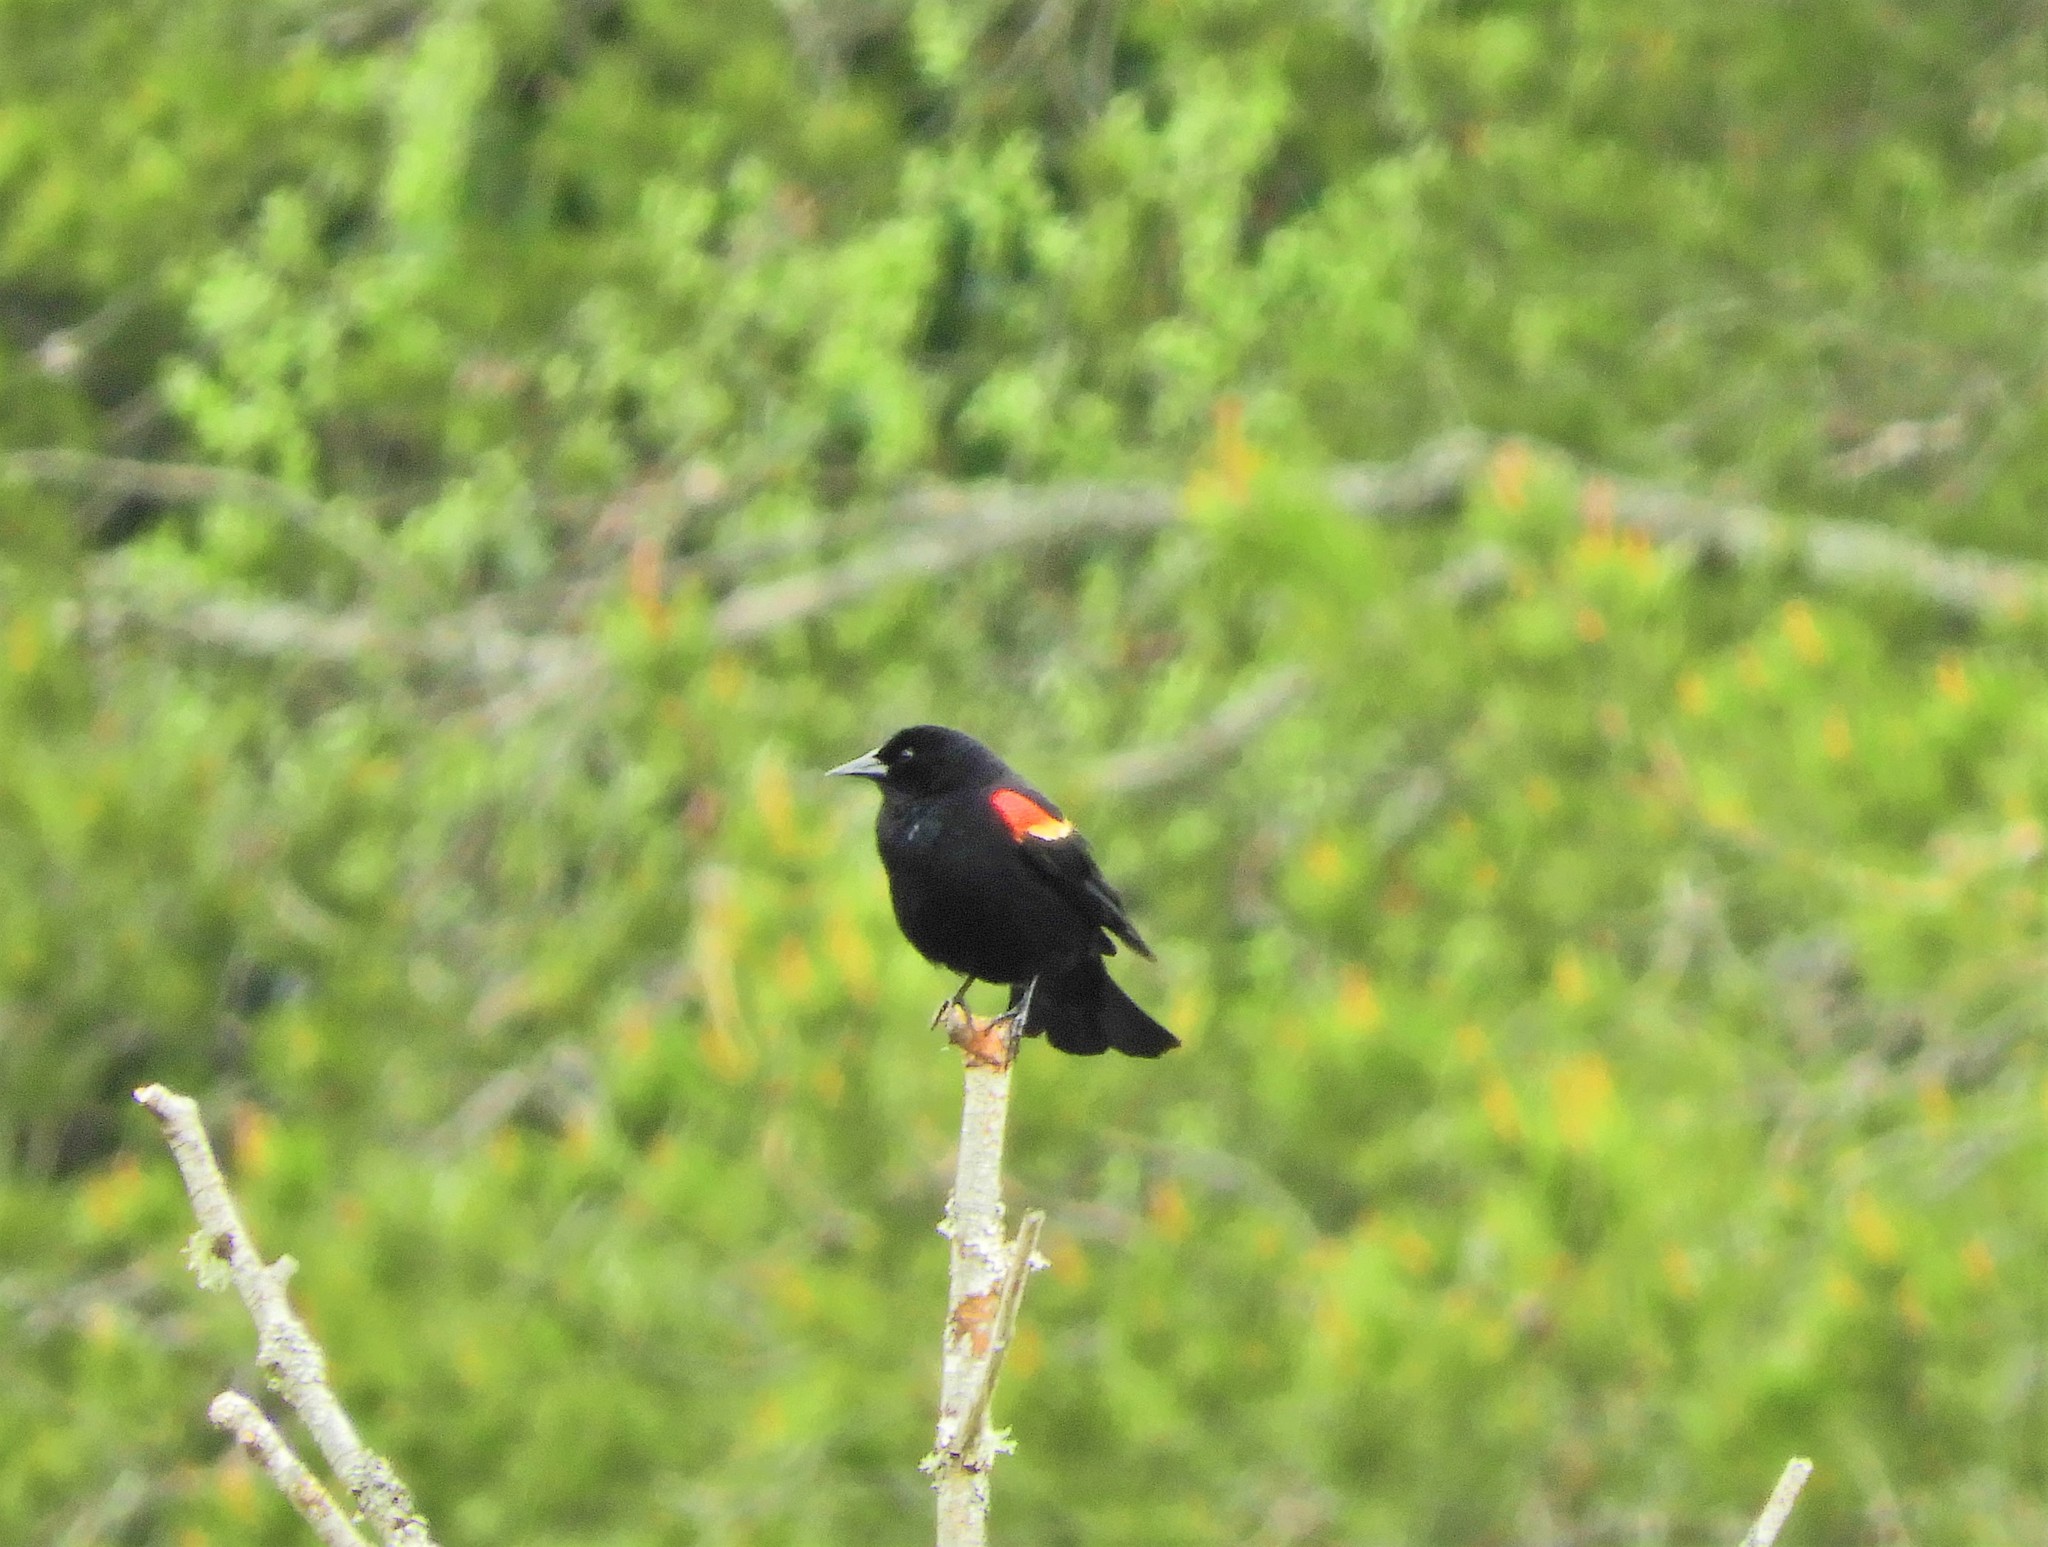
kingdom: Animalia
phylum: Chordata
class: Aves
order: Passeriformes
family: Icteridae
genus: Agelaius
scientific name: Agelaius phoeniceus
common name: Red-winged blackbird
